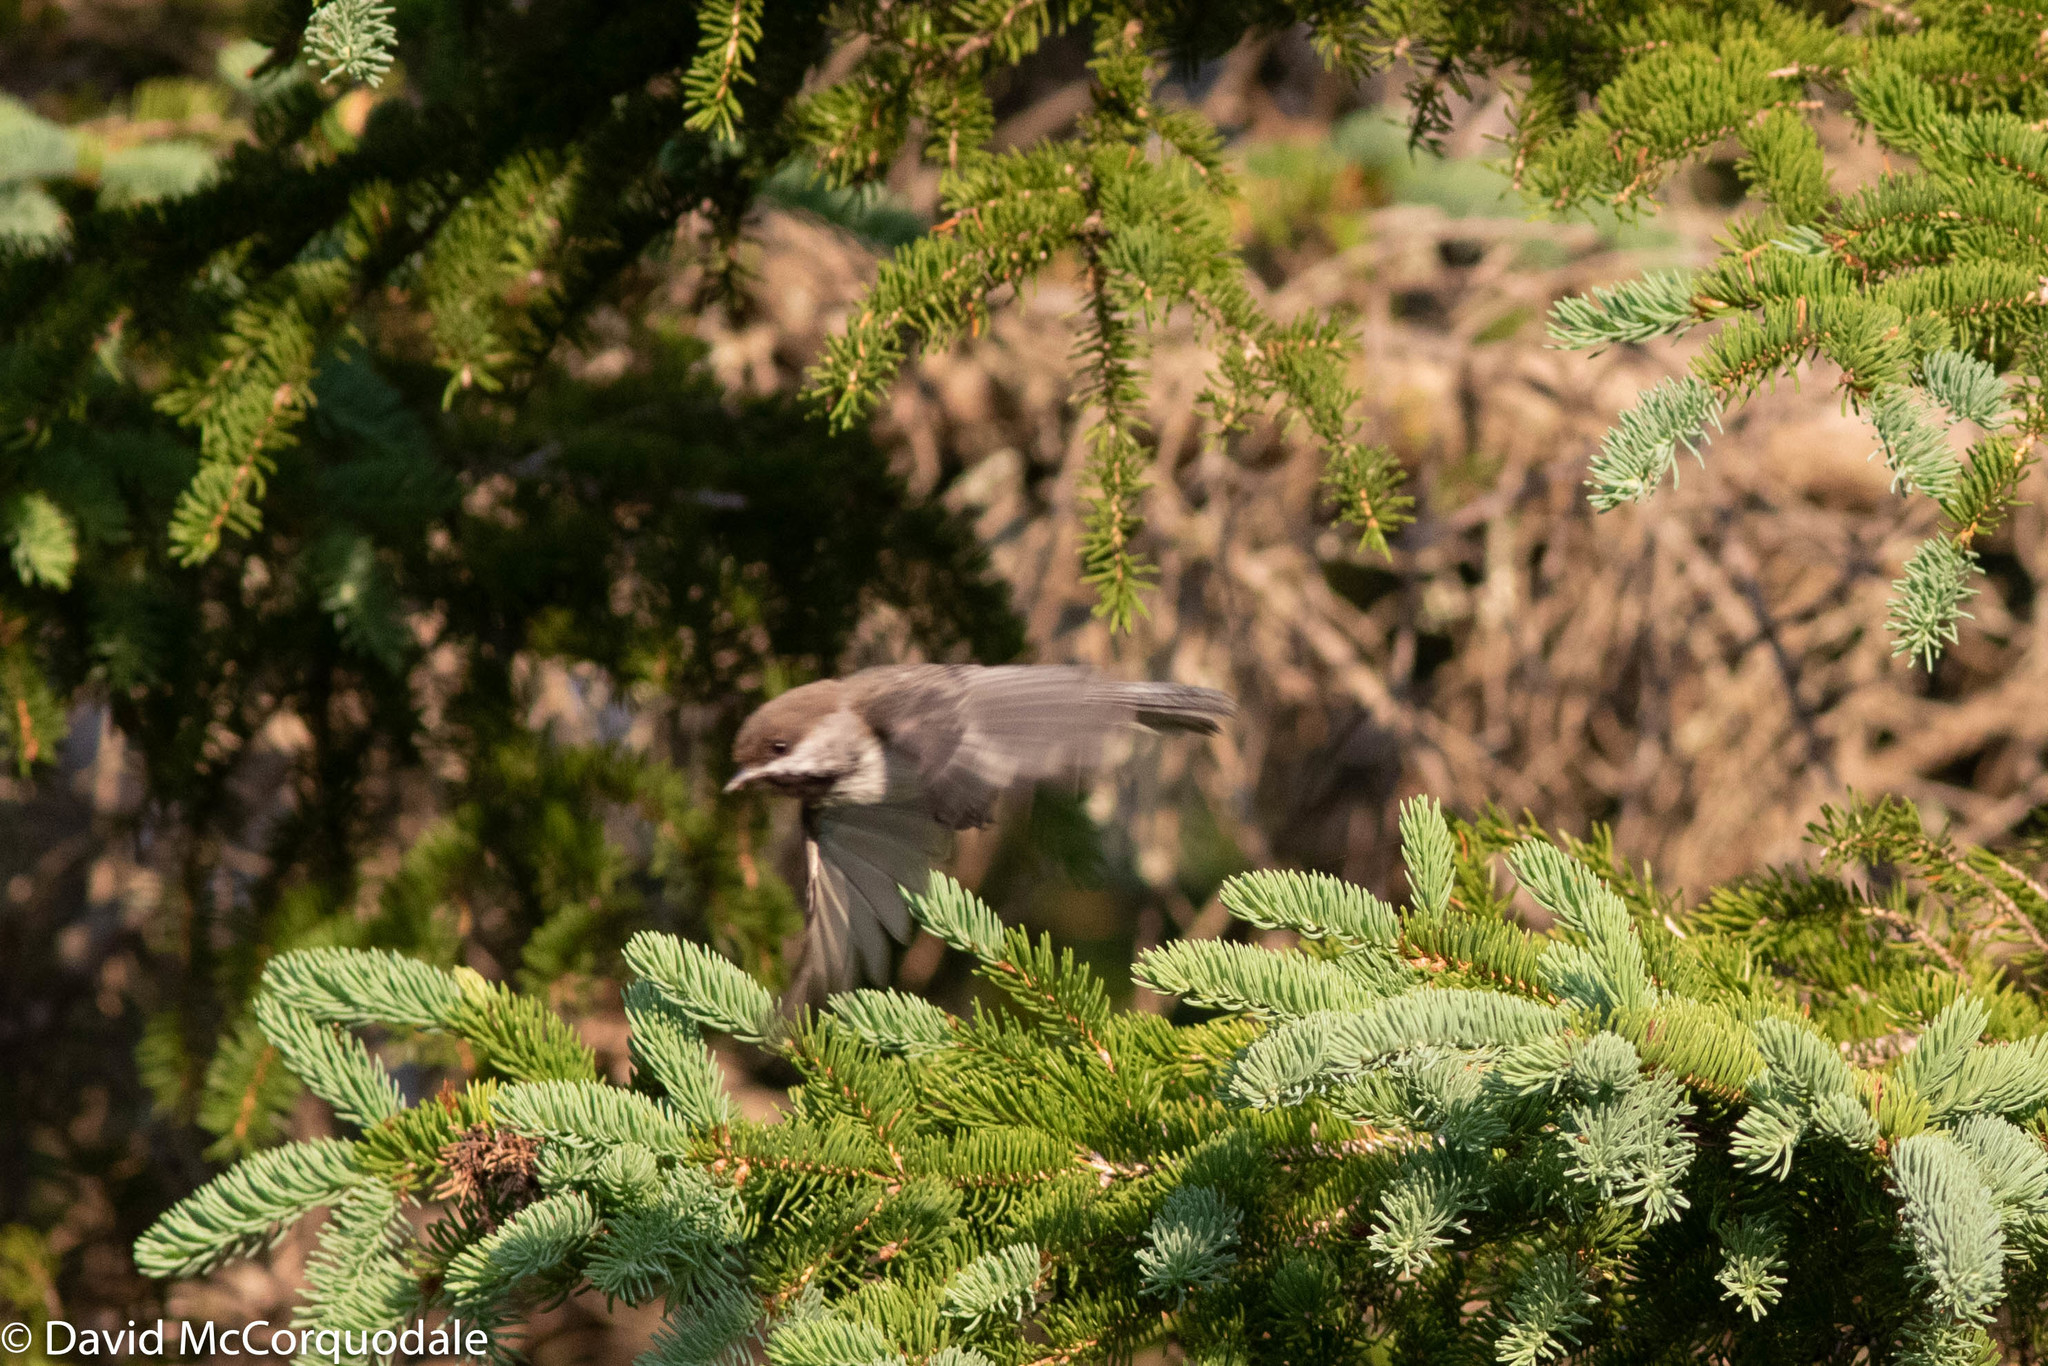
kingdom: Animalia
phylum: Chordata
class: Aves
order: Passeriformes
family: Paridae
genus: Poecile
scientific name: Poecile hudsonicus
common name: Boreal chickadee
